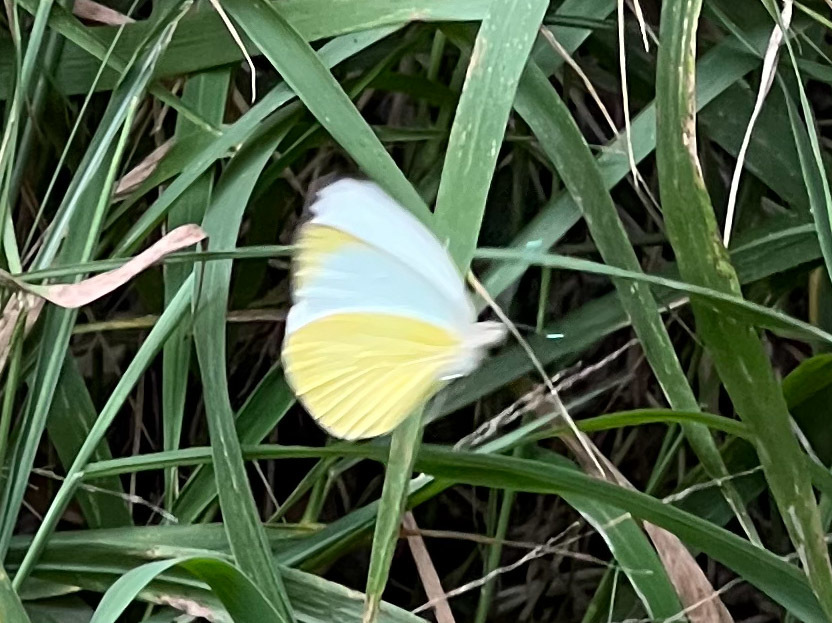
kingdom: Animalia
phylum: Arthropoda
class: Insecta
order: Lepidoptera
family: Pieridae
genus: Ascia
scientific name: Ascia monuste
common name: Great southern white
